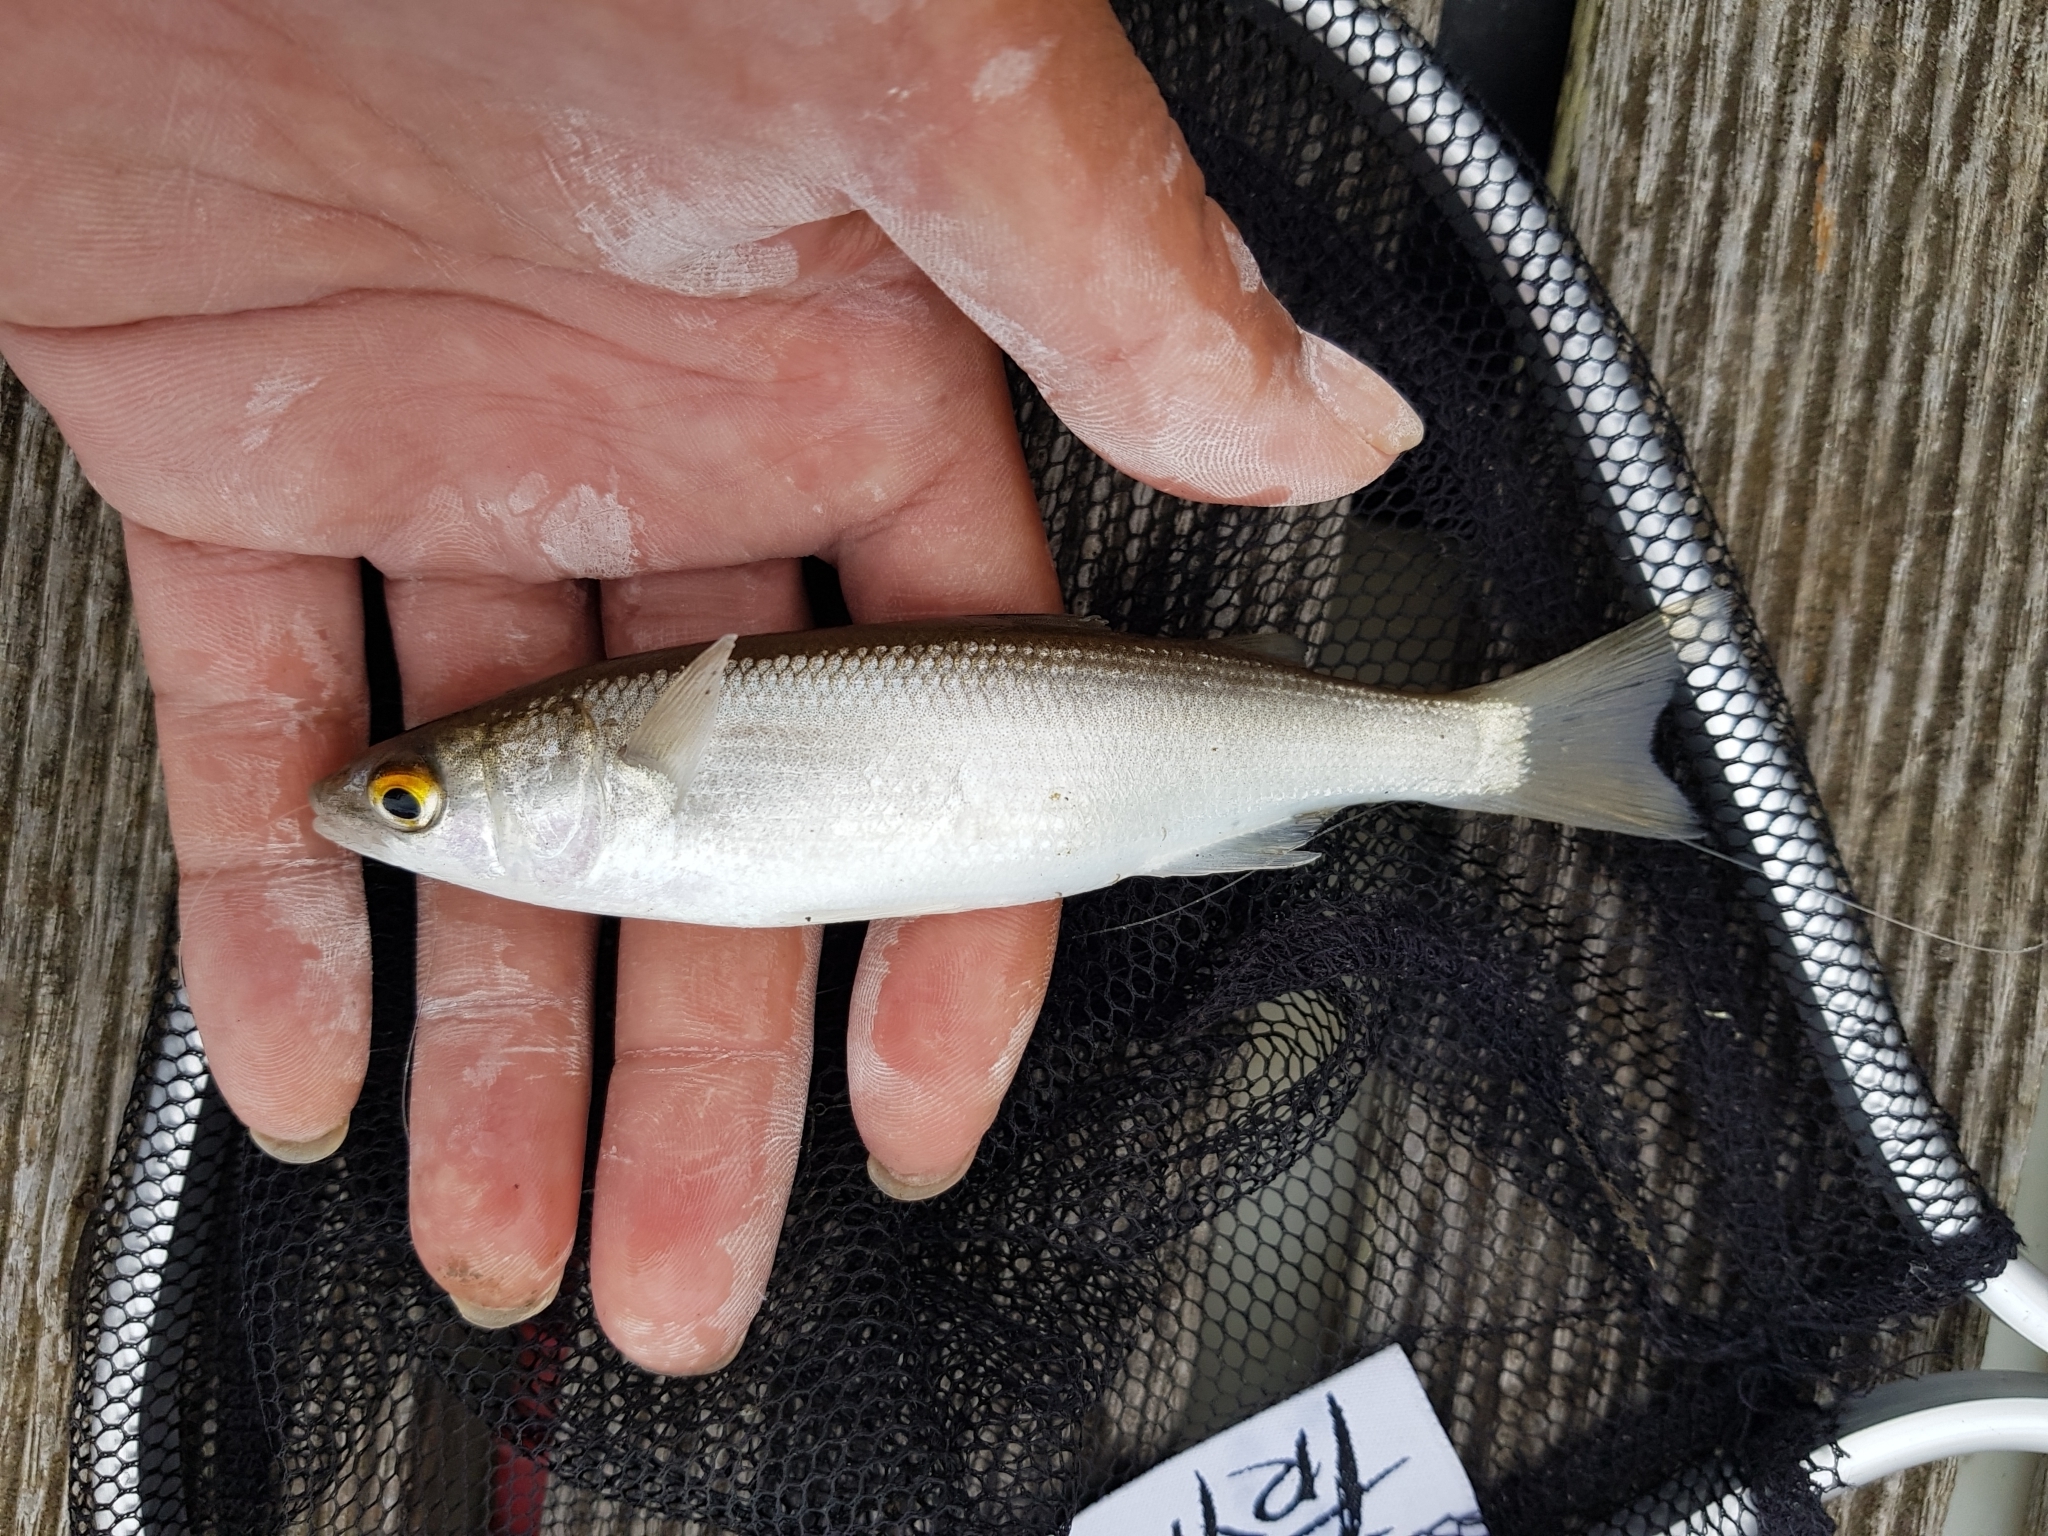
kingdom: Animalia
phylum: Chordata
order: Mugiliformes
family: Mugilidae
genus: Aldrichetta
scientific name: Aldrichetta forsteri
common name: Yellow-eye mullet
